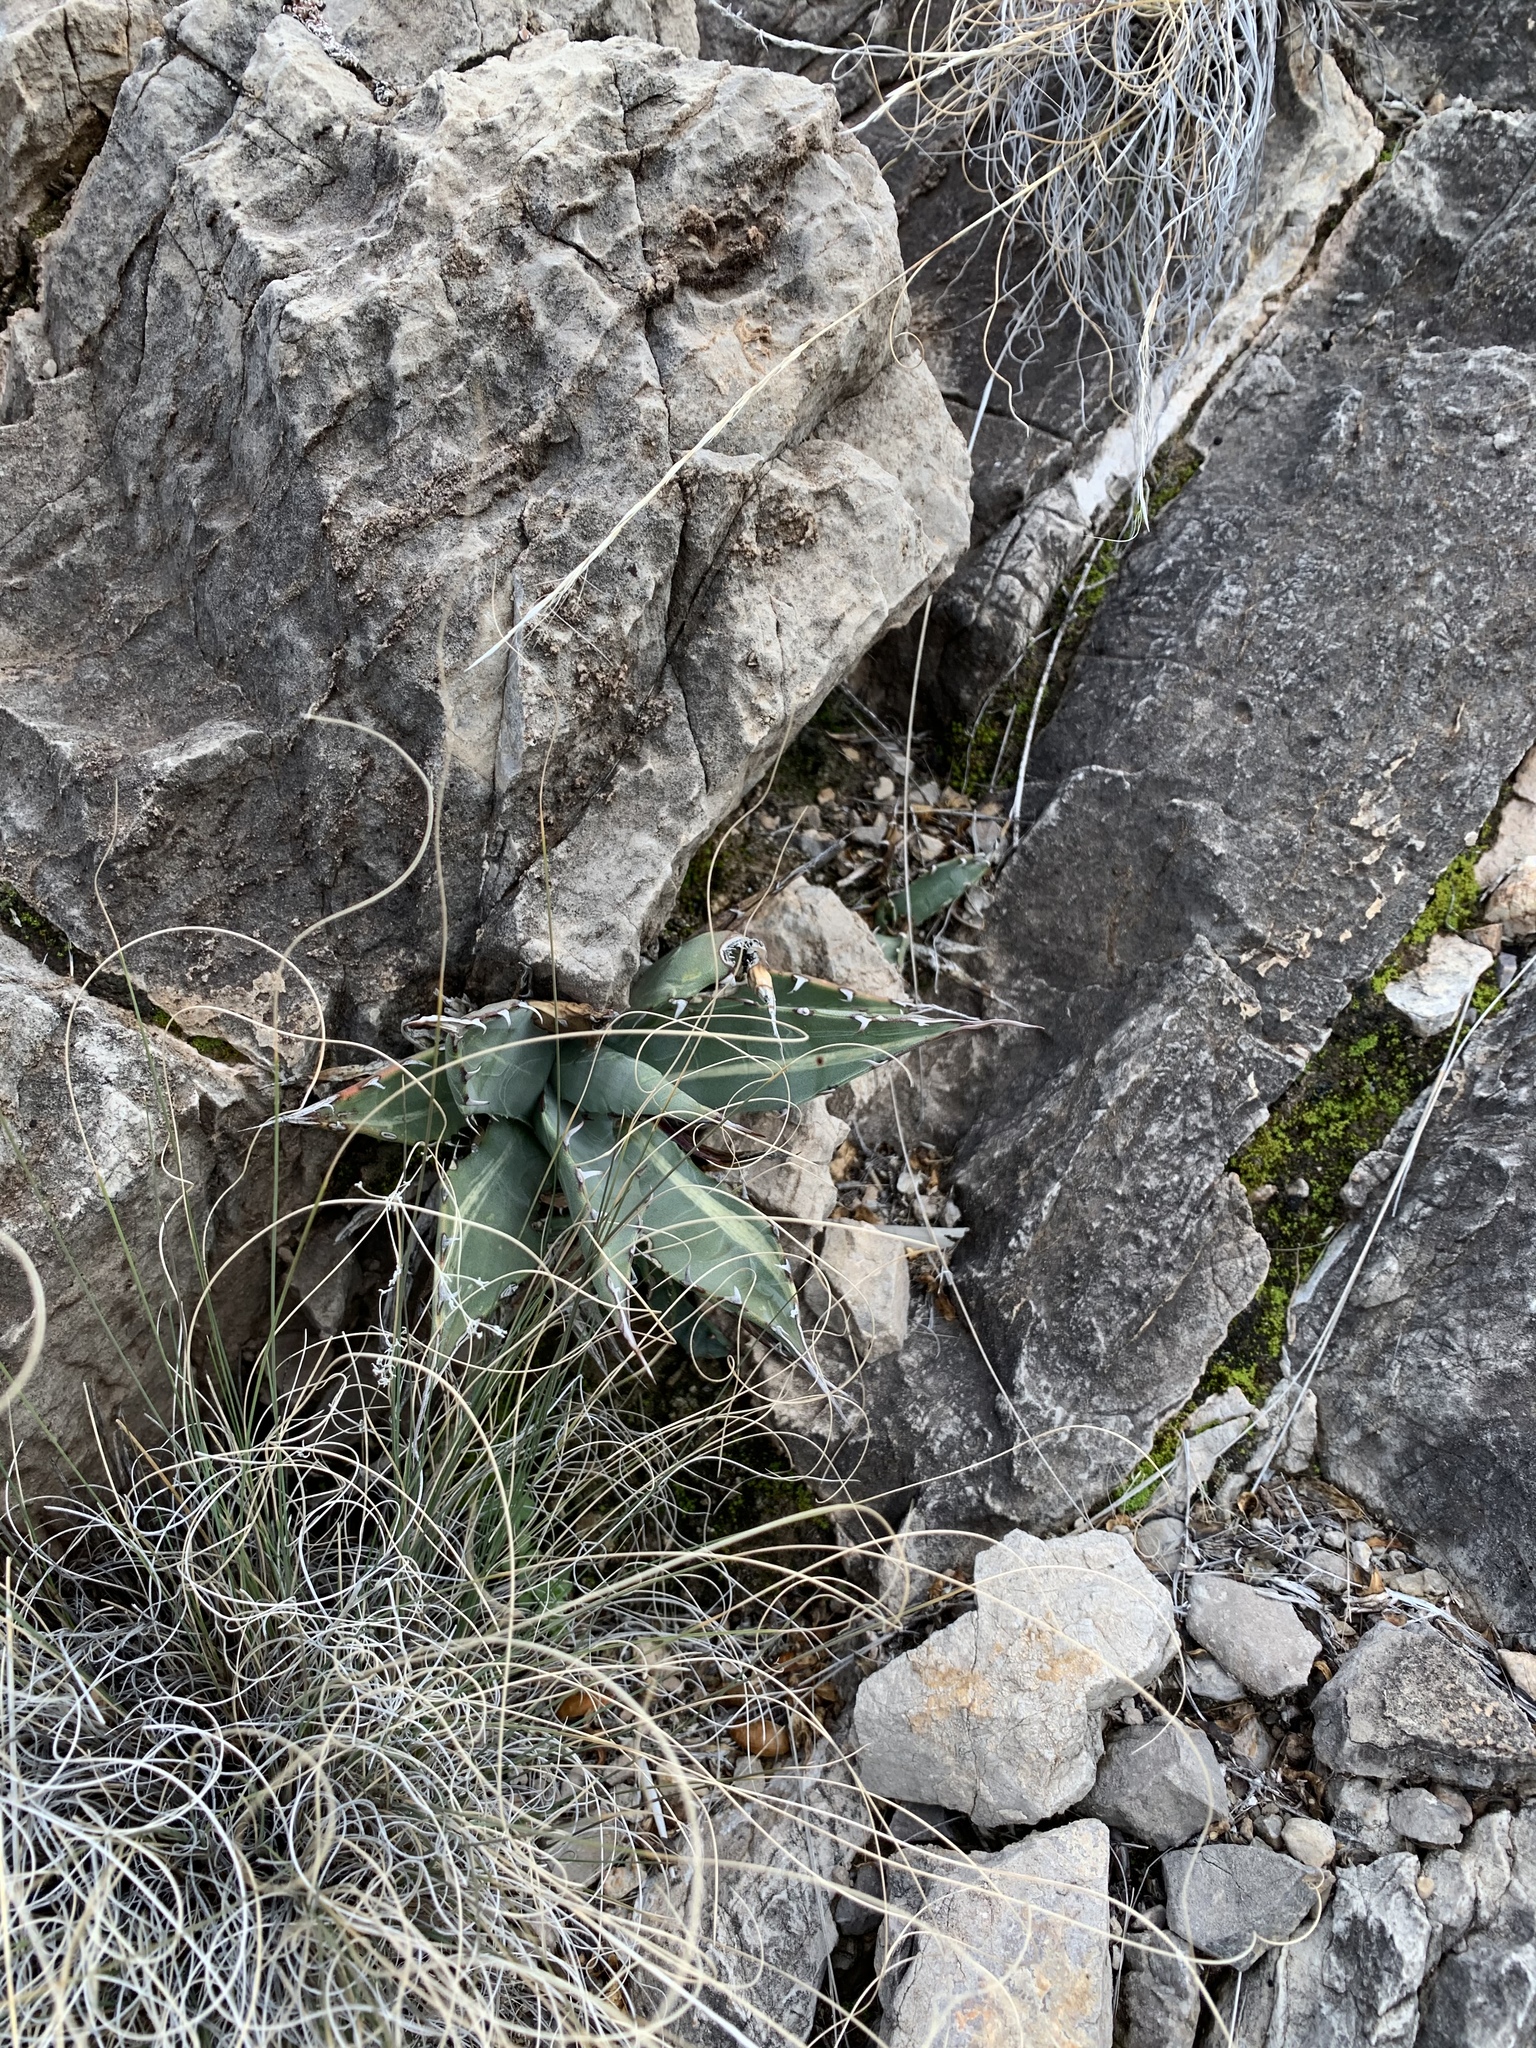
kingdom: Plantae
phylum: Tracheophyta
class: Liliopsida
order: Asparagales
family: Asparagaceae
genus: Agave
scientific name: Agave parryi
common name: Parry's agave
